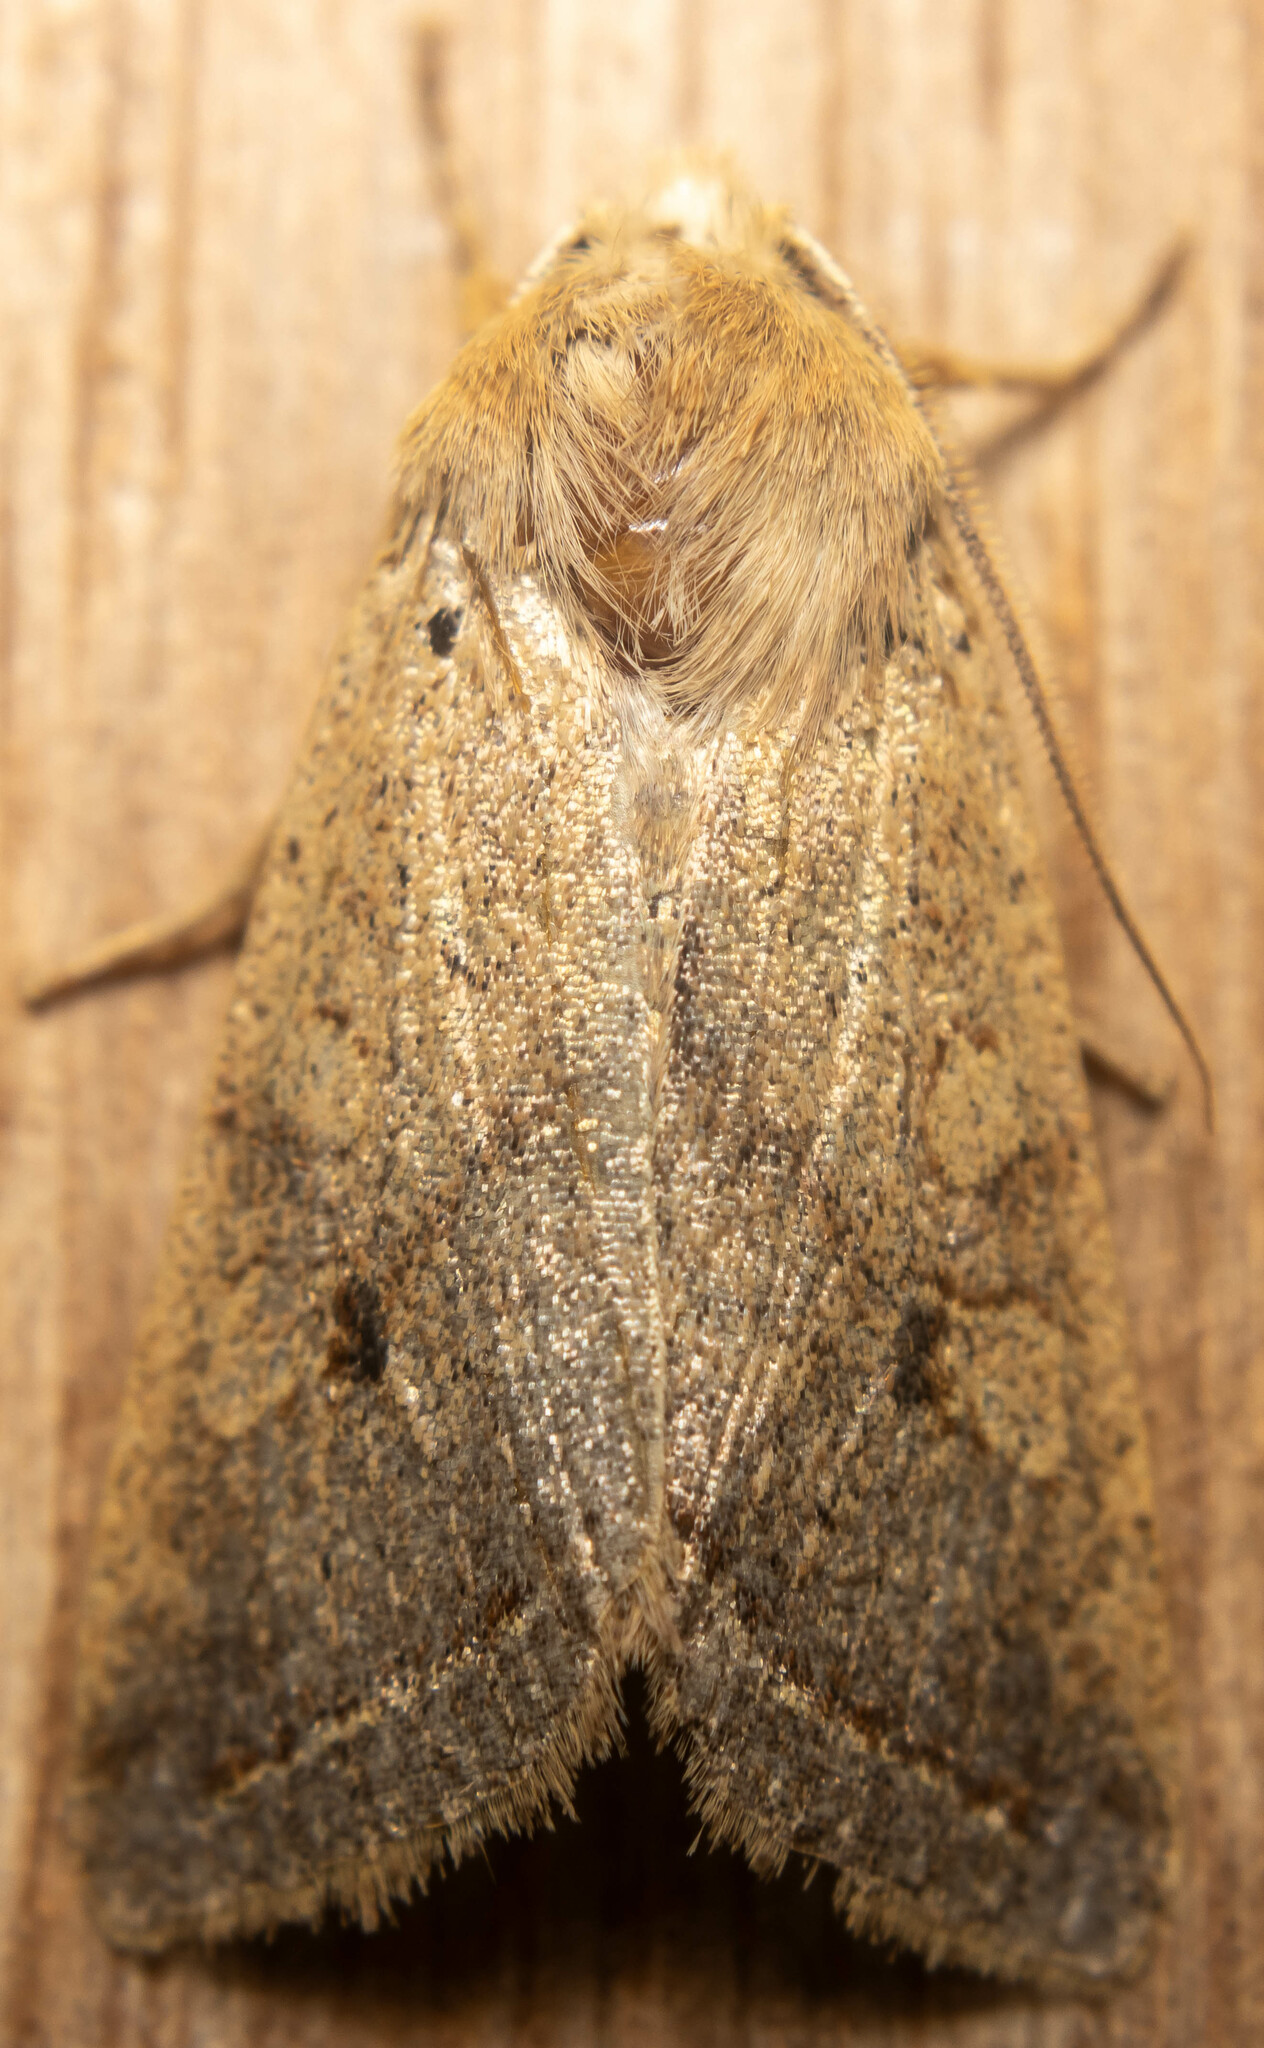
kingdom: Animalia
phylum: Arthropoda
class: Insecta
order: Lepidoptera
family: Noctuidae
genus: Agrochola
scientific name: Agrochola macilenta
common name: Yellow-line quaker
